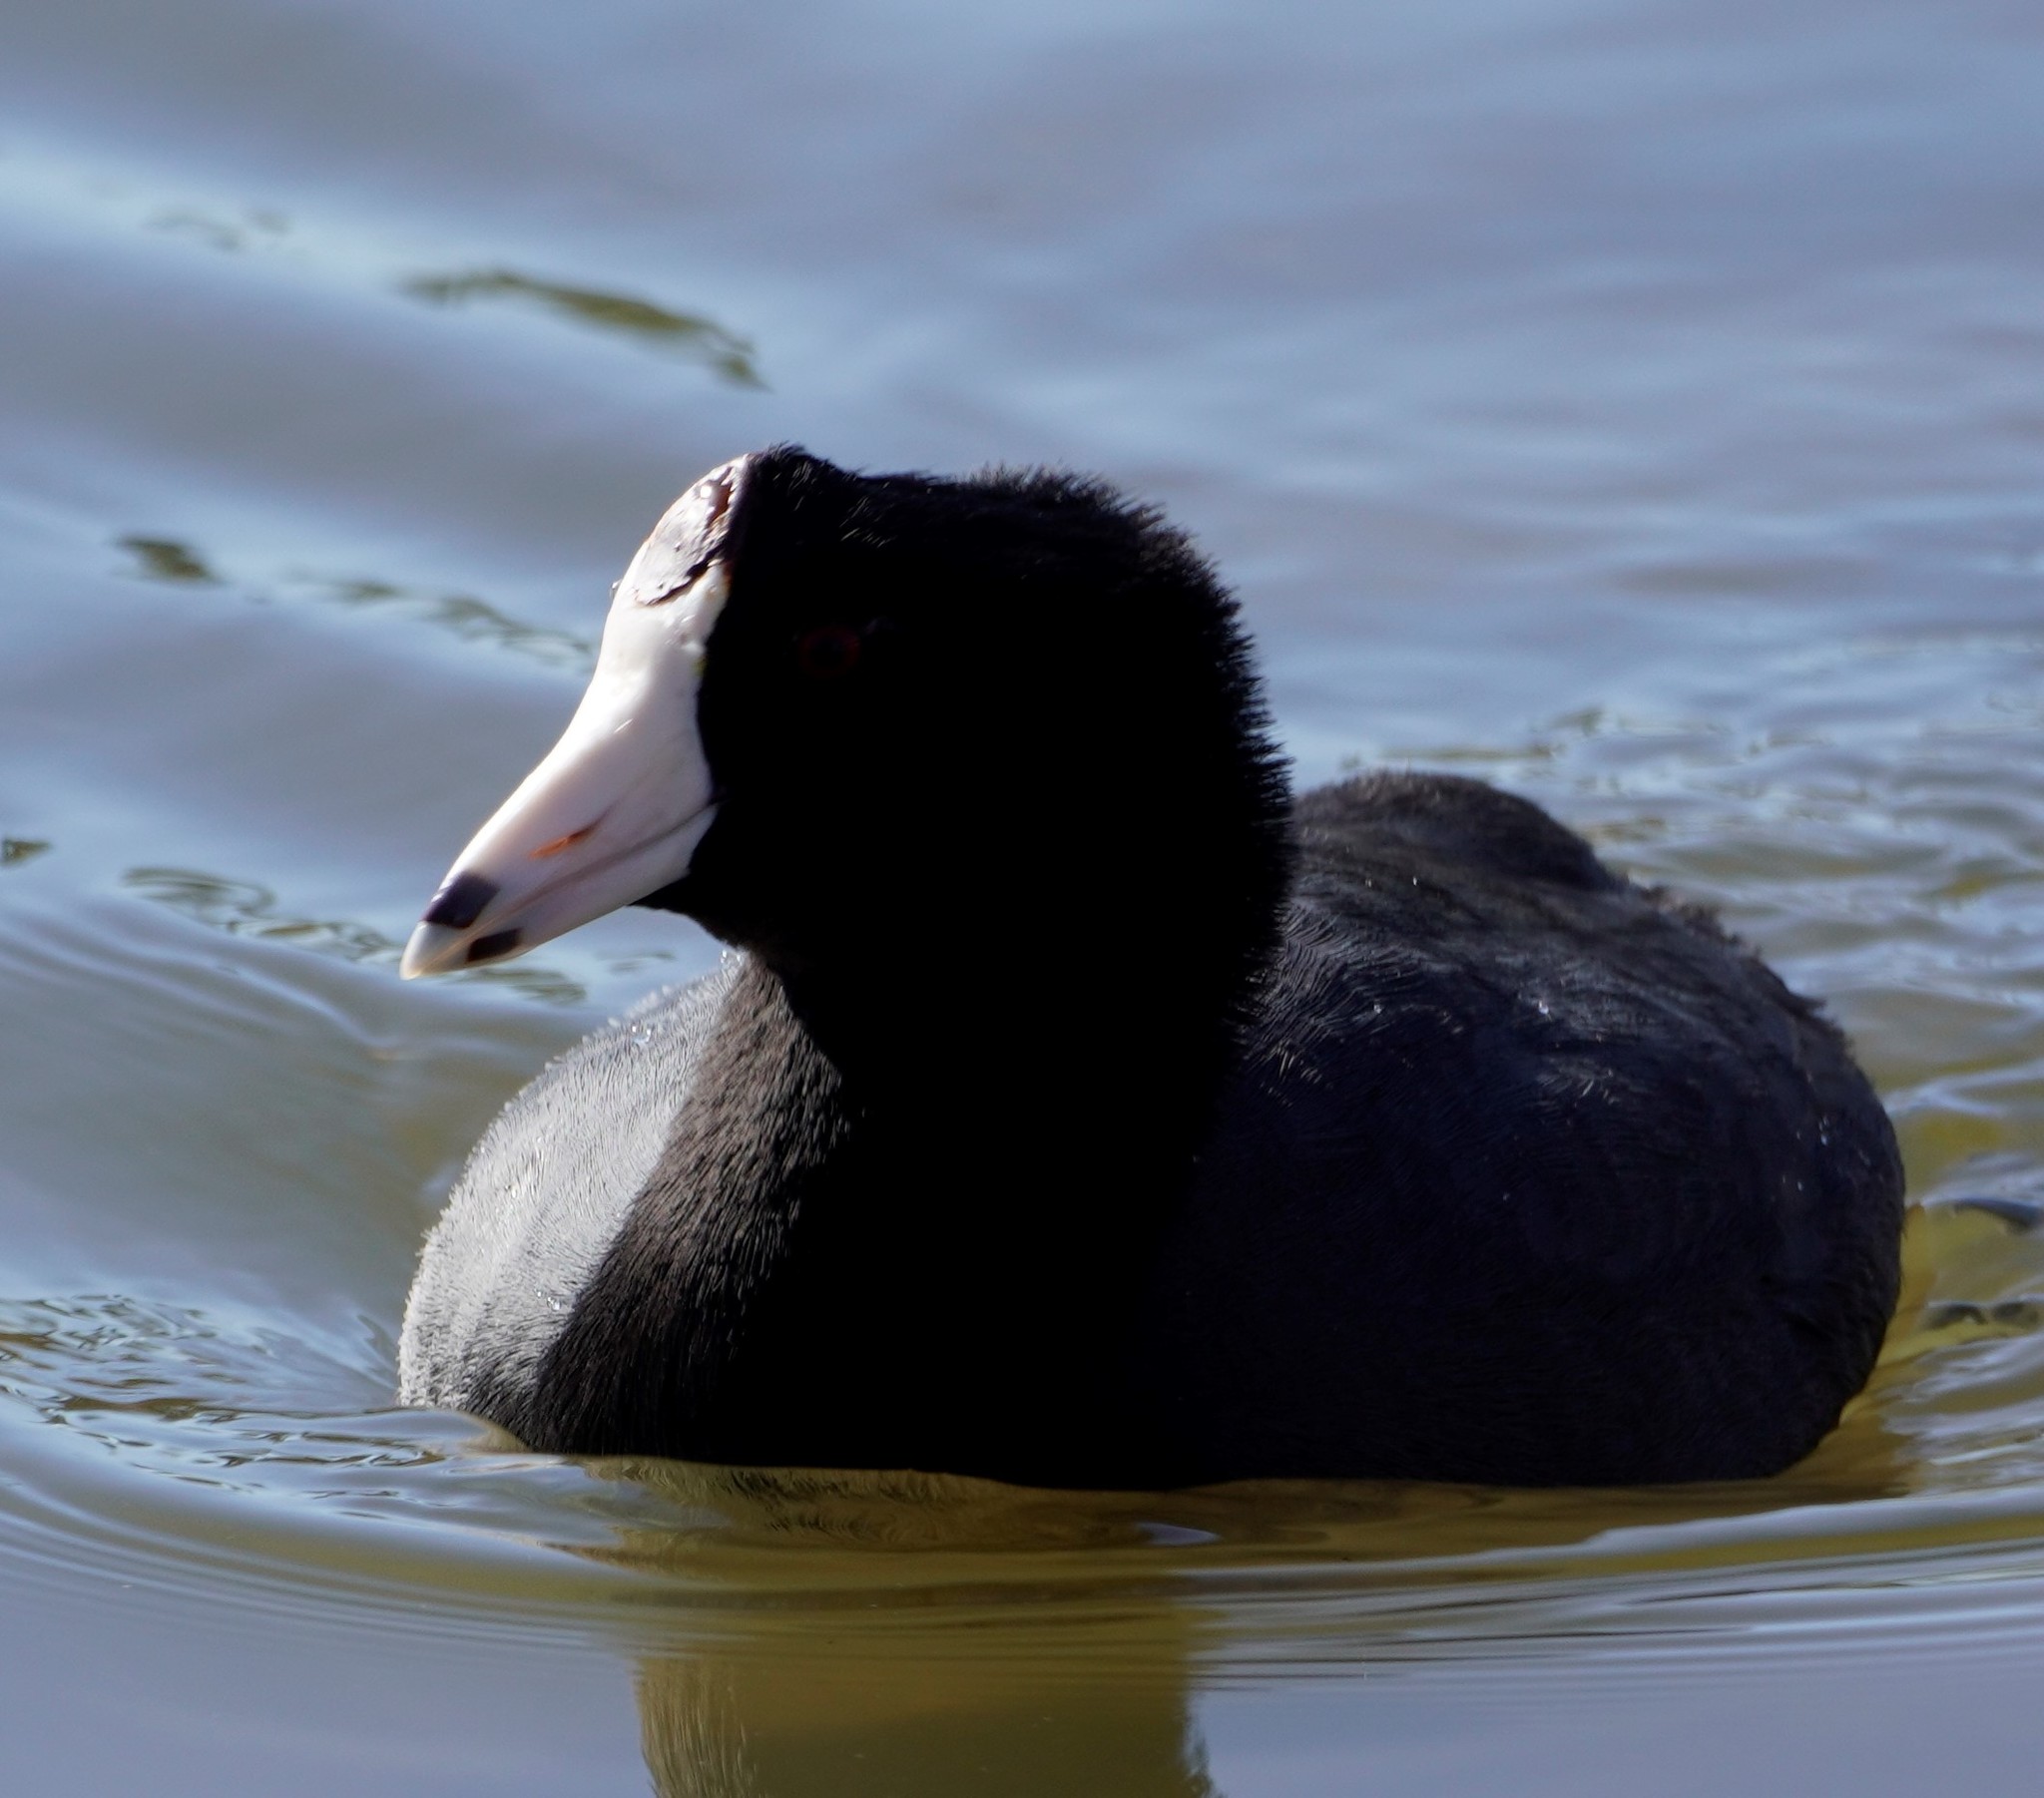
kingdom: Animalia
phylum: Chordata
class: Aves
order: Gruiformes
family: Rallidae
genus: Fulica
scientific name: Fulica americana
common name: American coot
